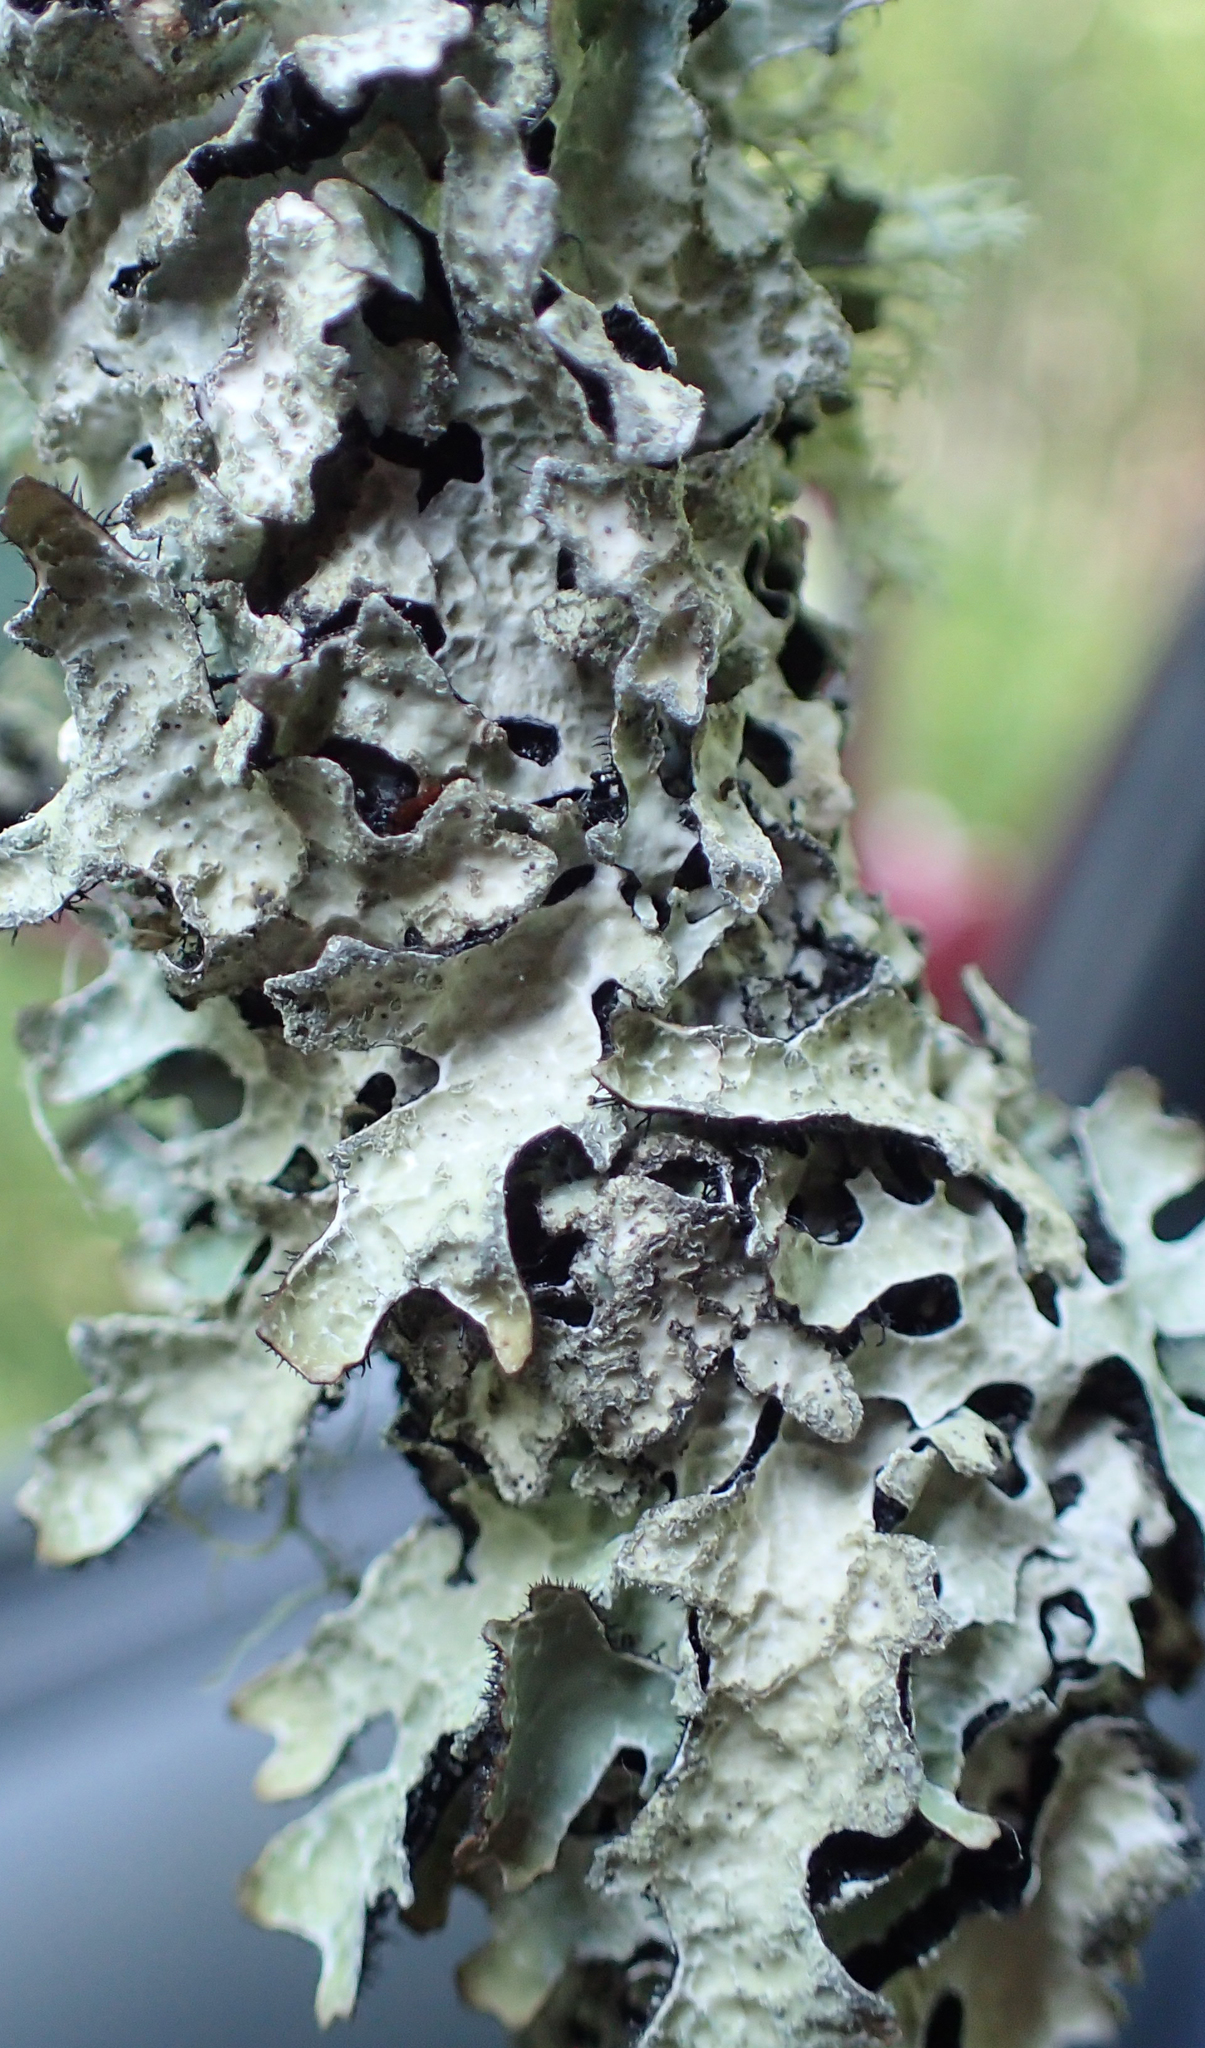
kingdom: Fungi
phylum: Ascomycota
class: Lecanoromycetes
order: Lecanorales
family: Parmeliaceae
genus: Parmelia
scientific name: Parmelia sulcata
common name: Netted shield lichen
